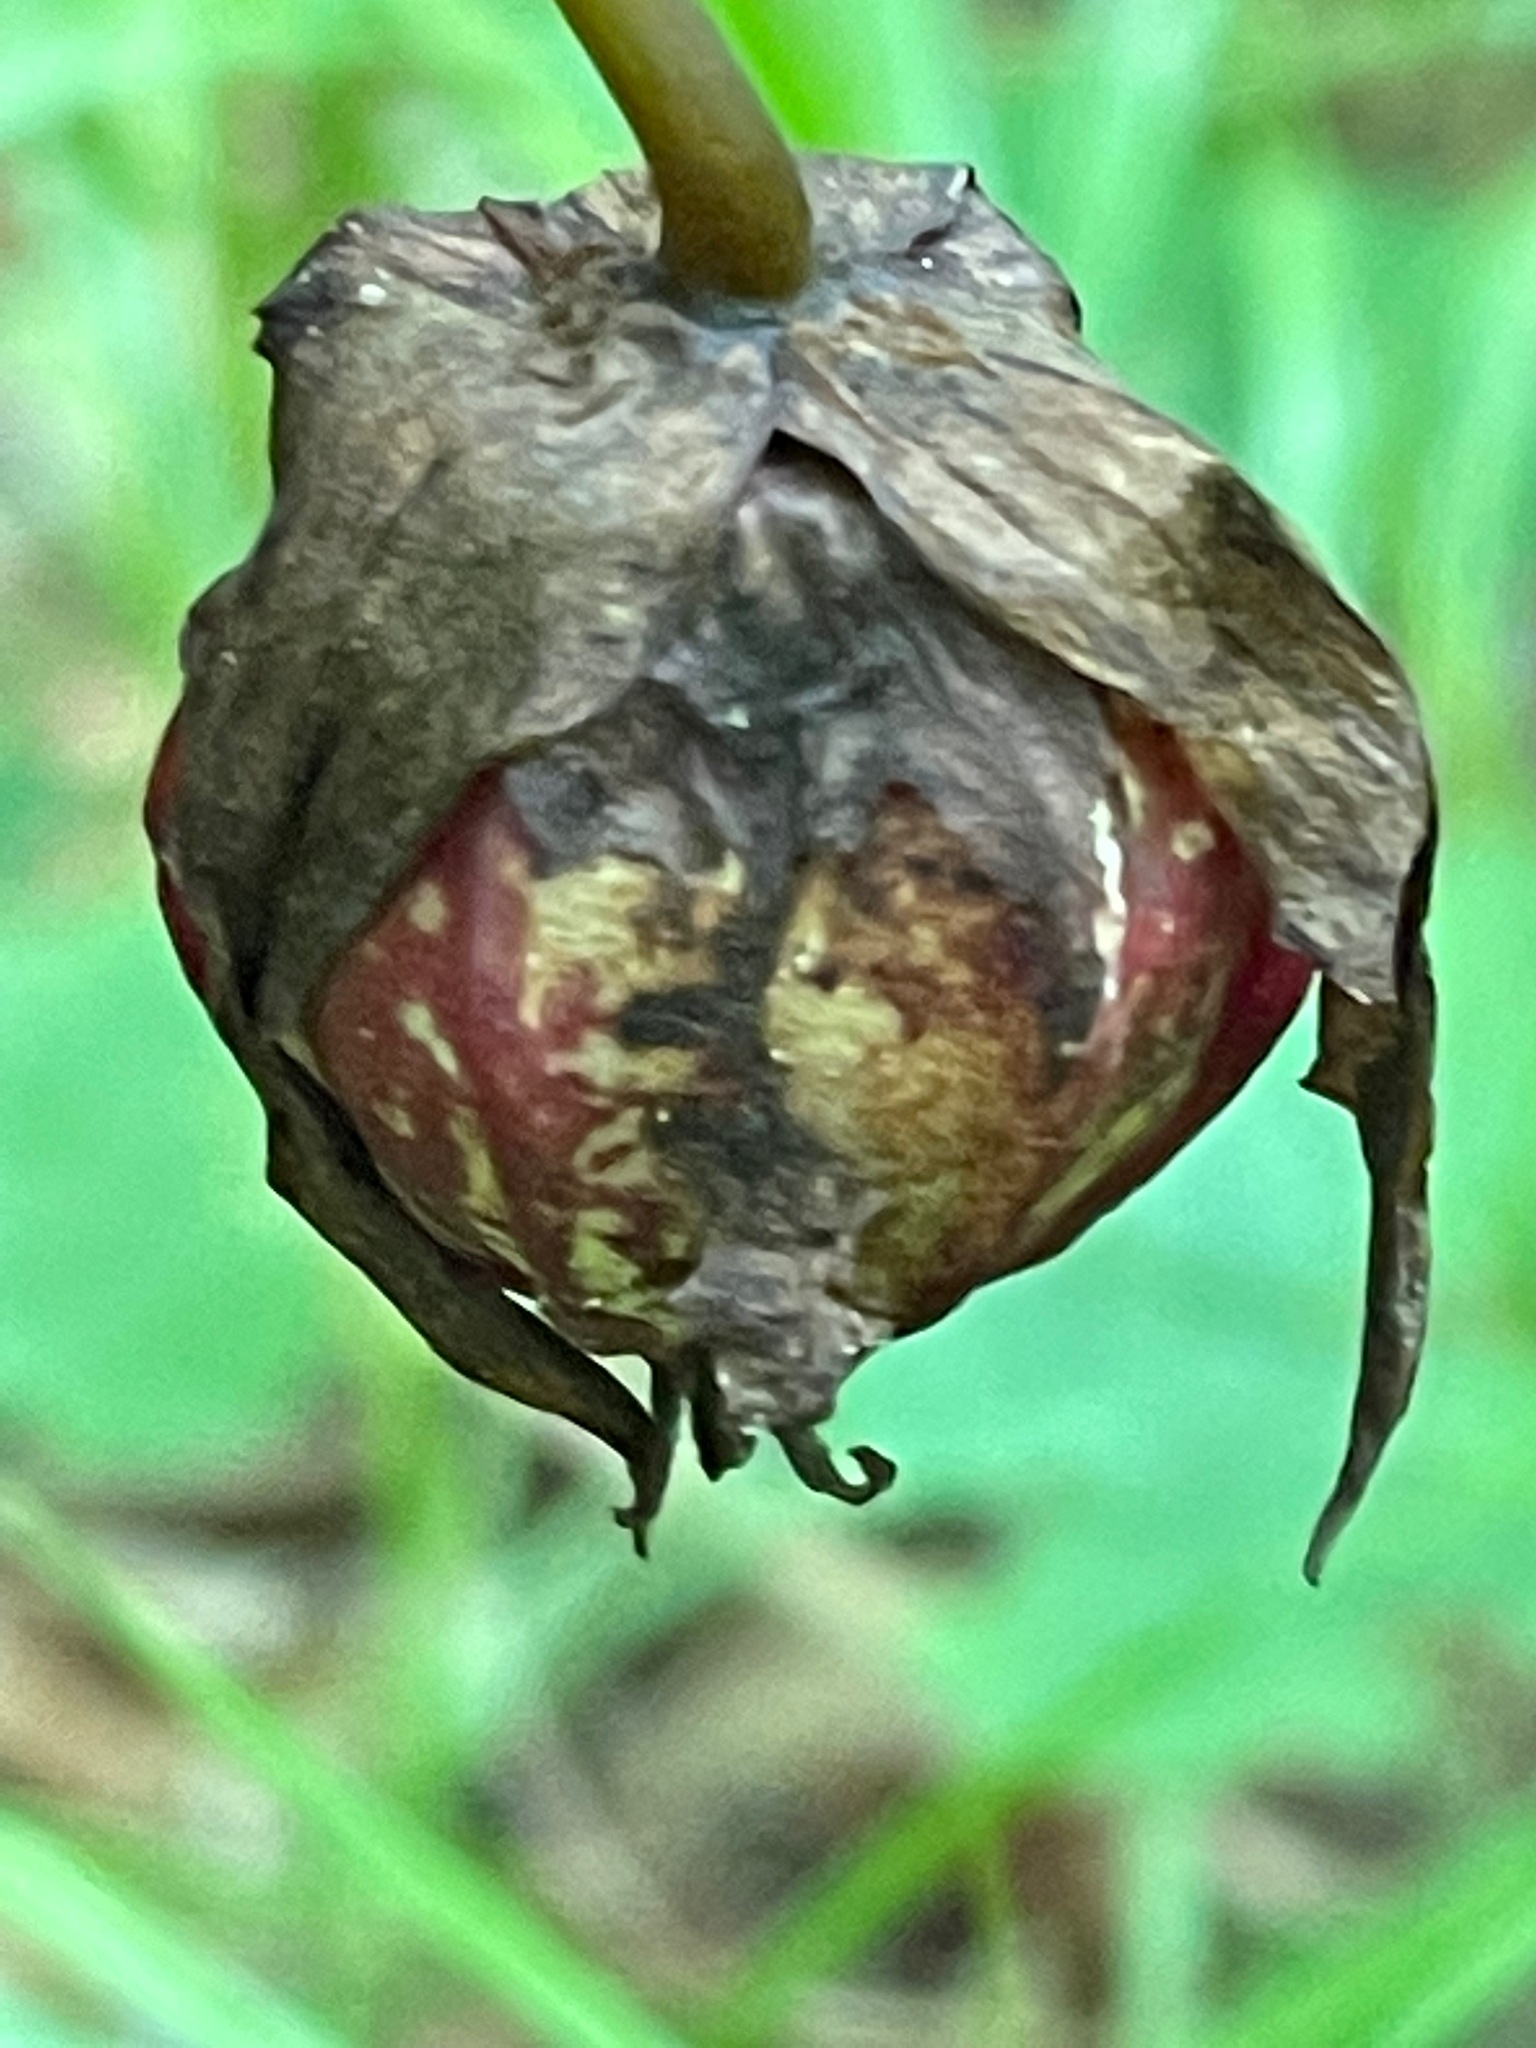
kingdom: Plantae
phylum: Tracheophyta
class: Liliopsida
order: Liliales
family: Melanthiaceae
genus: Trillium
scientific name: Trillium erectum
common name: Purple trillium
